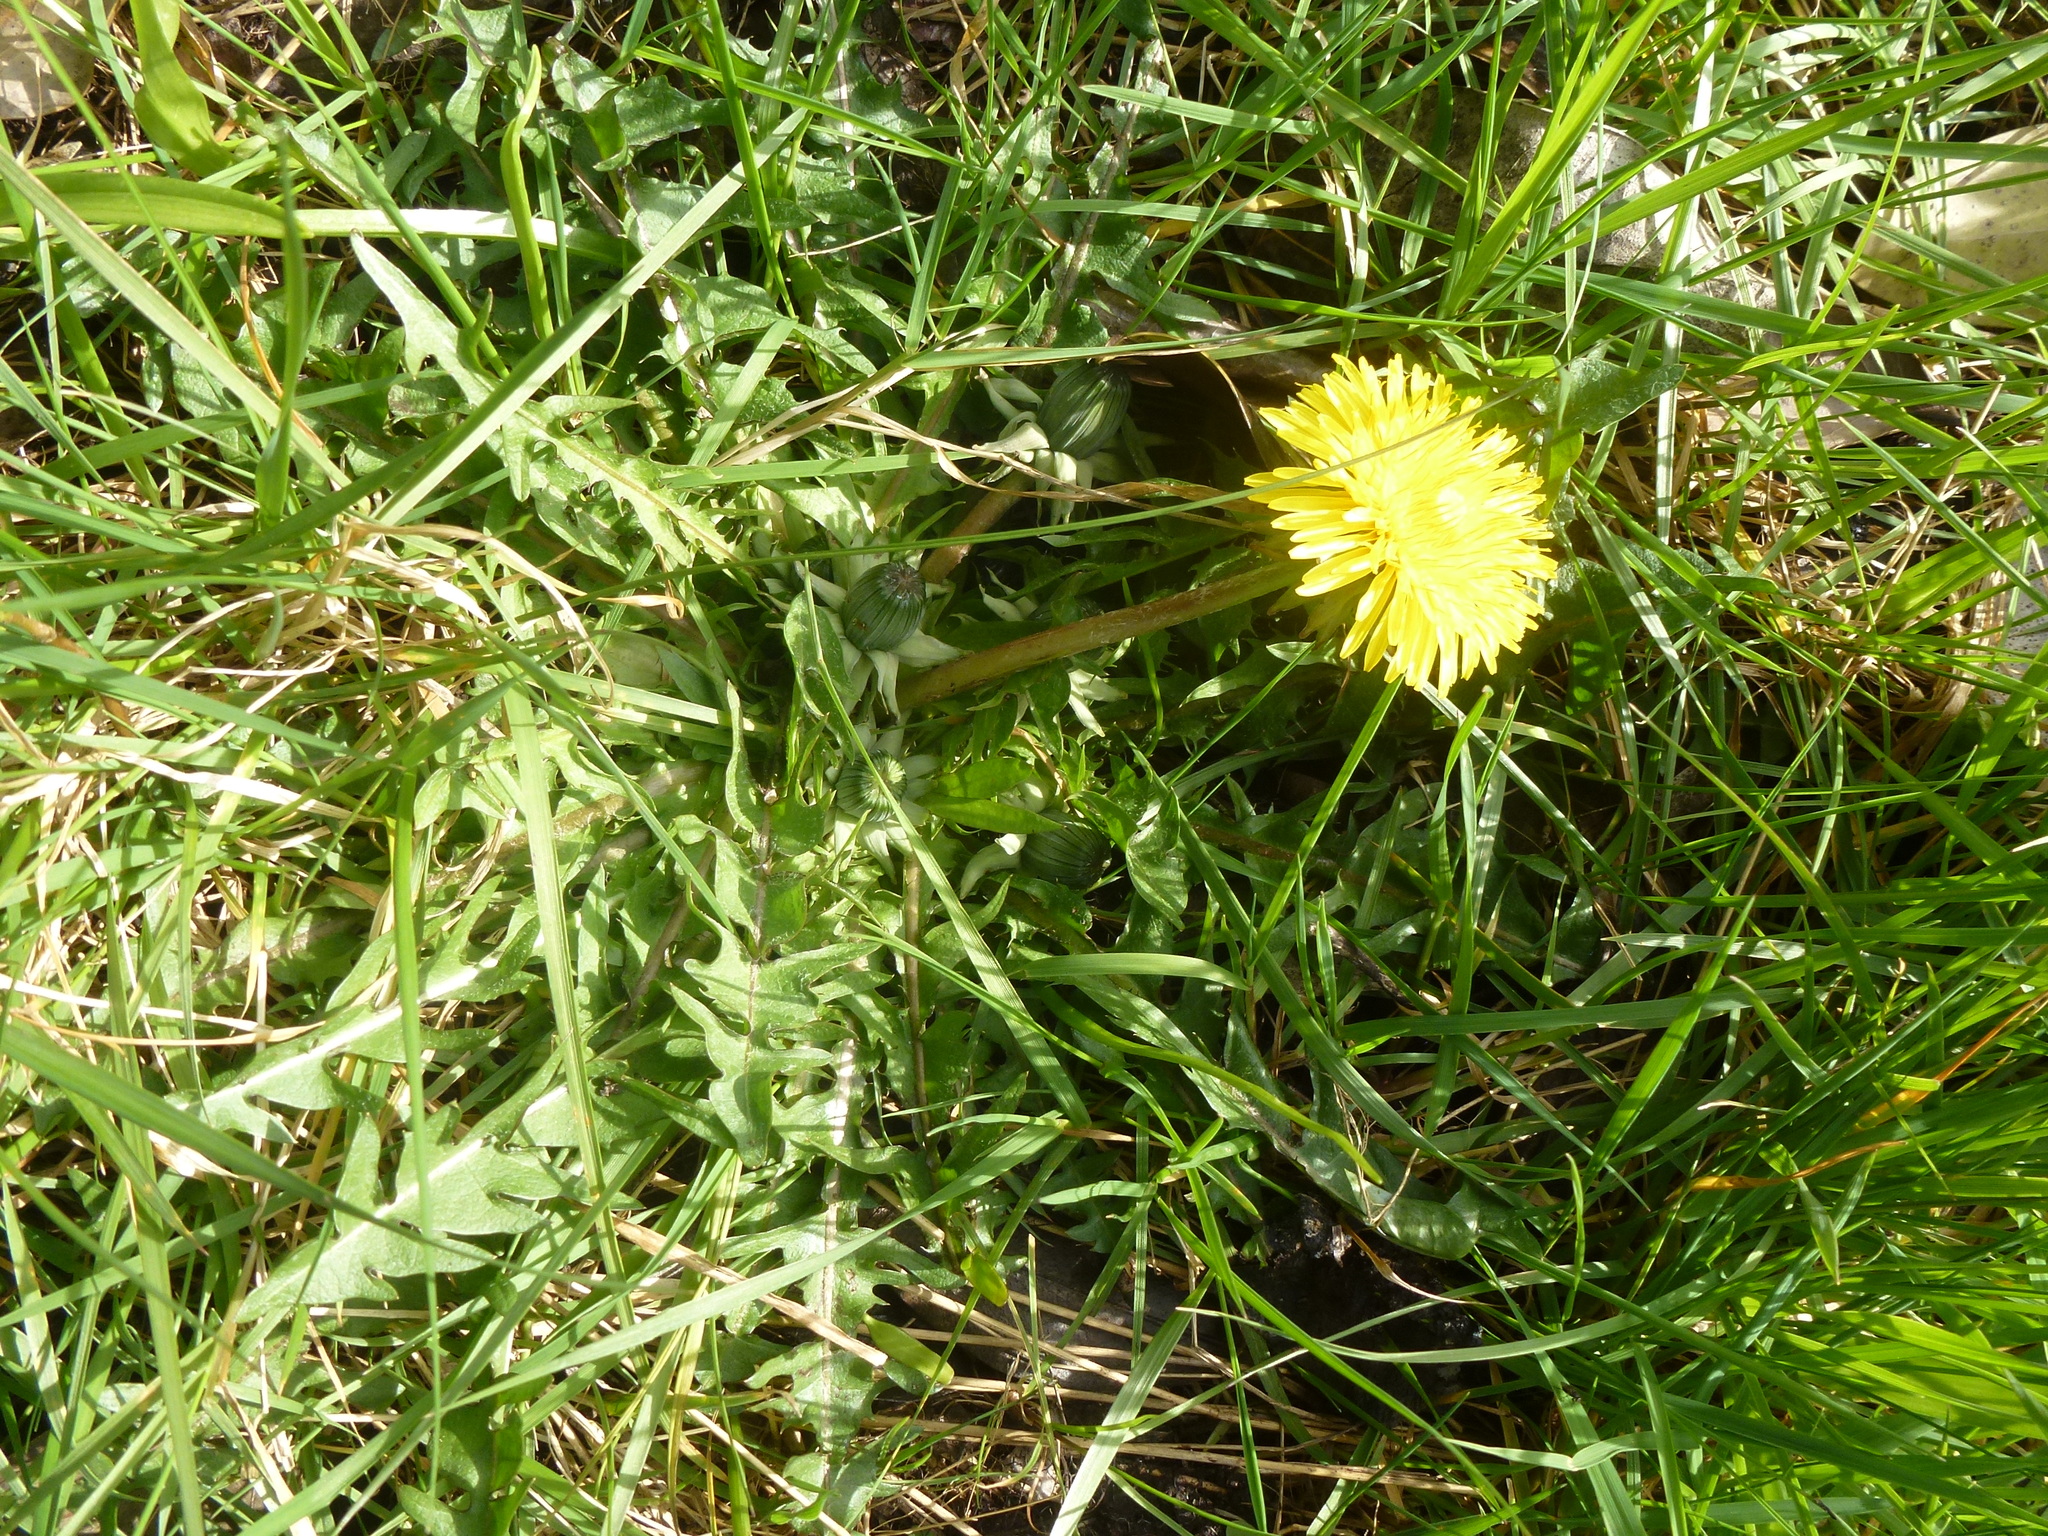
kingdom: Plantae
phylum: Tracheophyta
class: Magnoliopsida
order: Asterales
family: Asteraceae
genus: Taraxacum
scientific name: Taraxacum officinale
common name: Common dandelion
